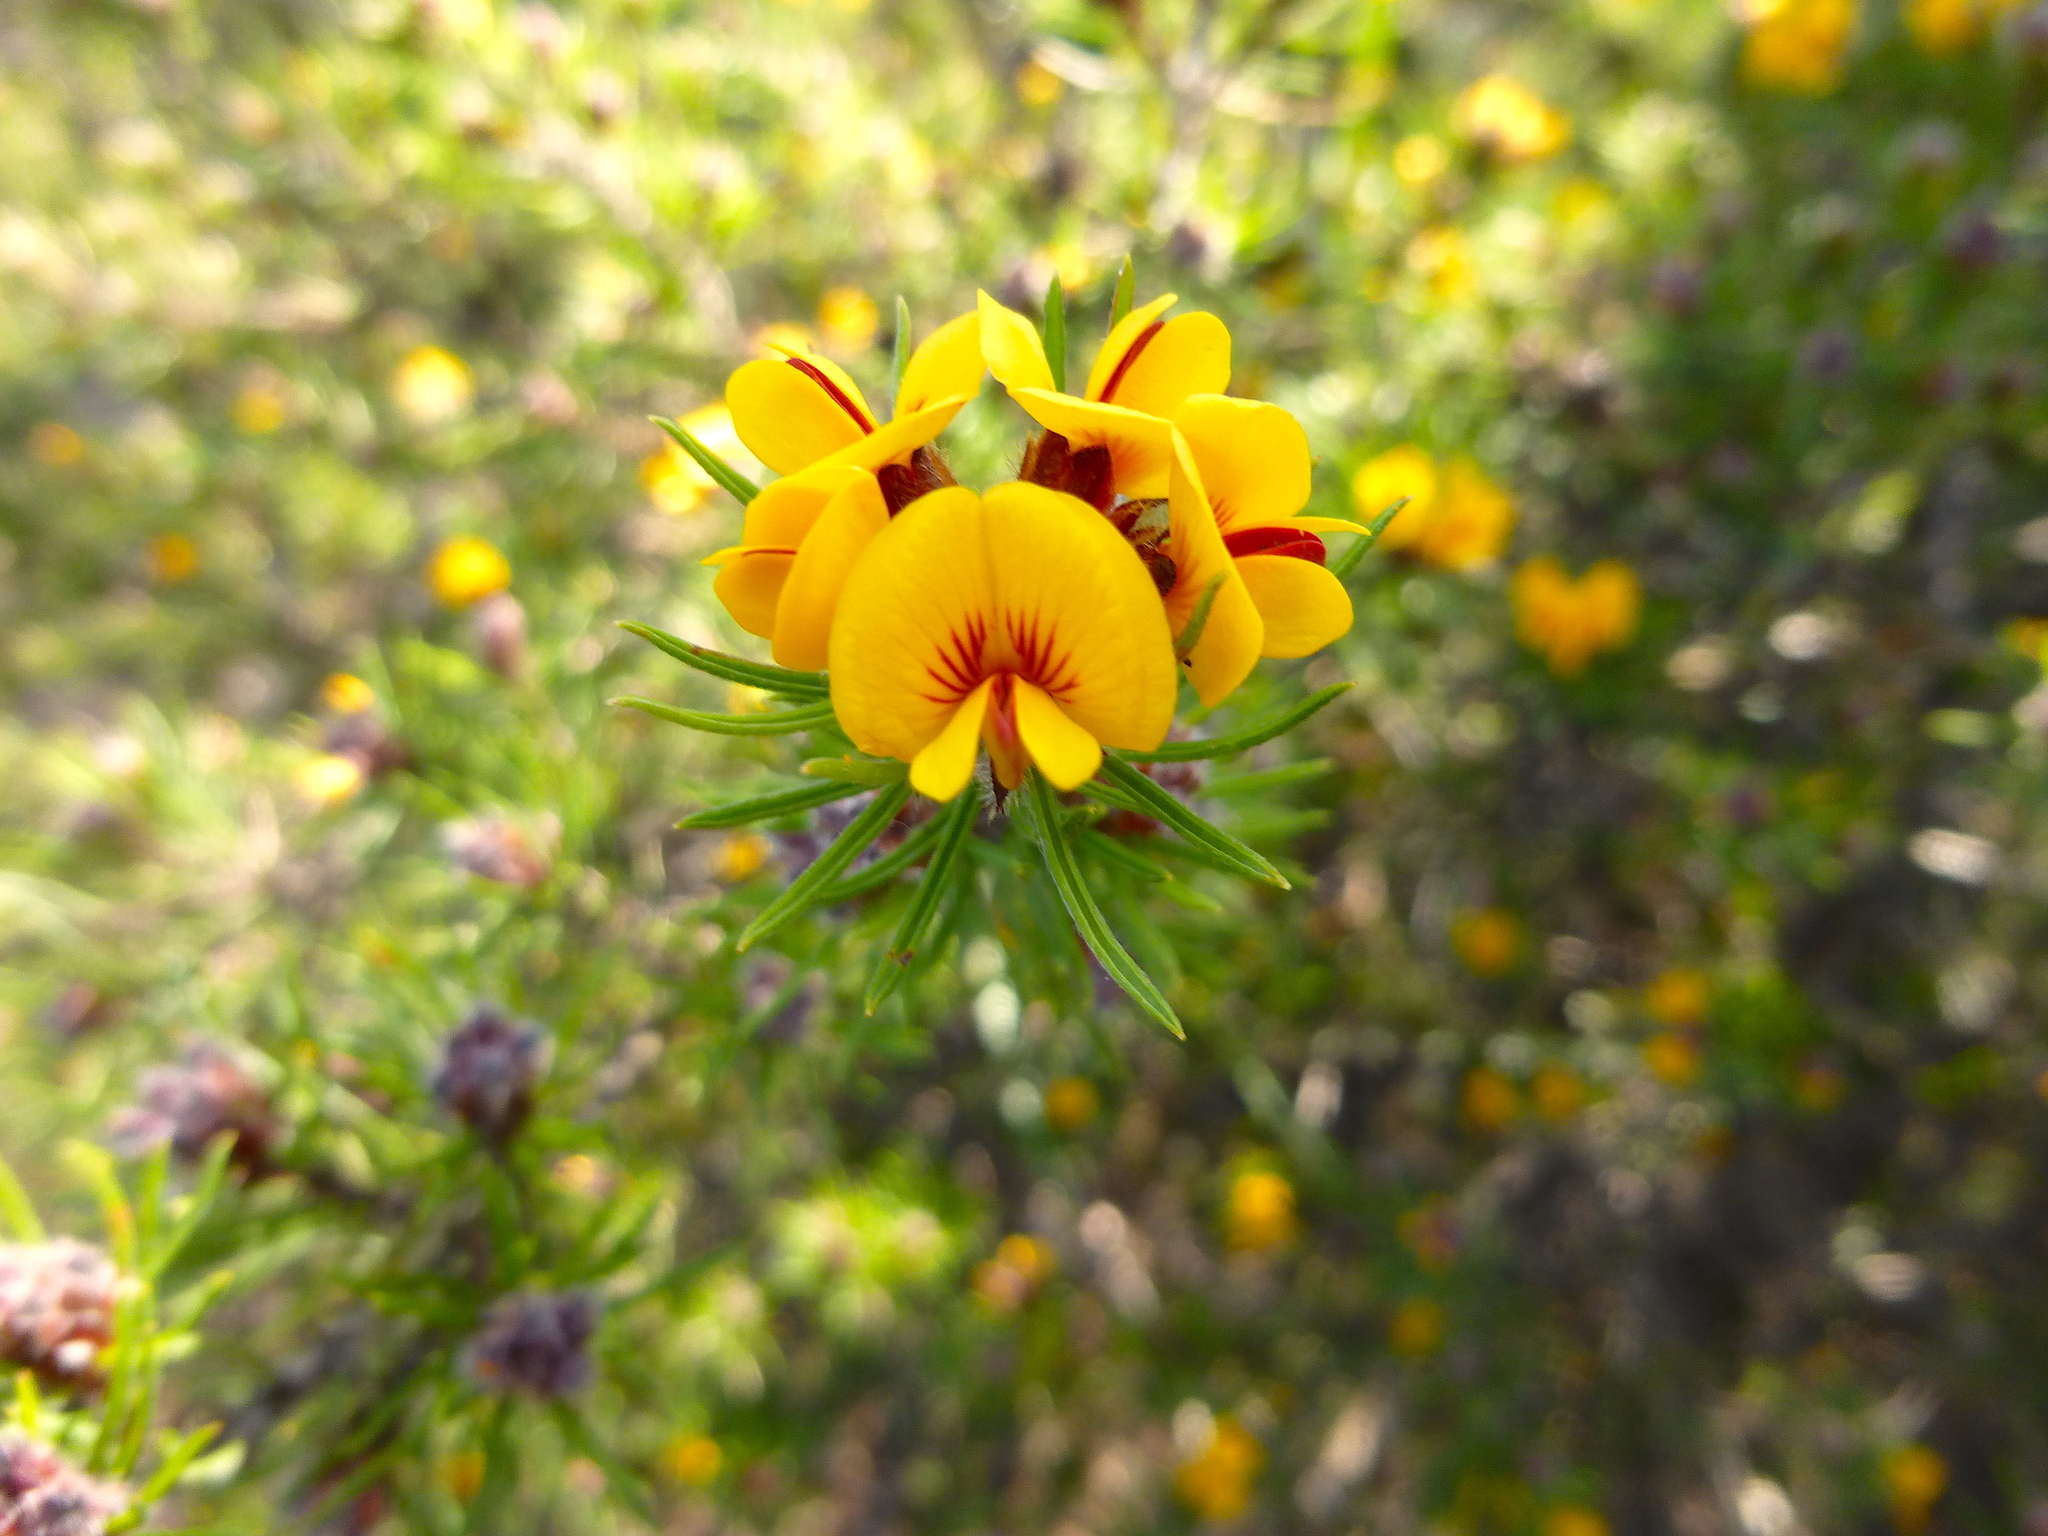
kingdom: Plantae
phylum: Tracheophyta
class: Magnoliopsida
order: Fabales
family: Fabaceae
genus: Pultenaea
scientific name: Pultenaea mollis
